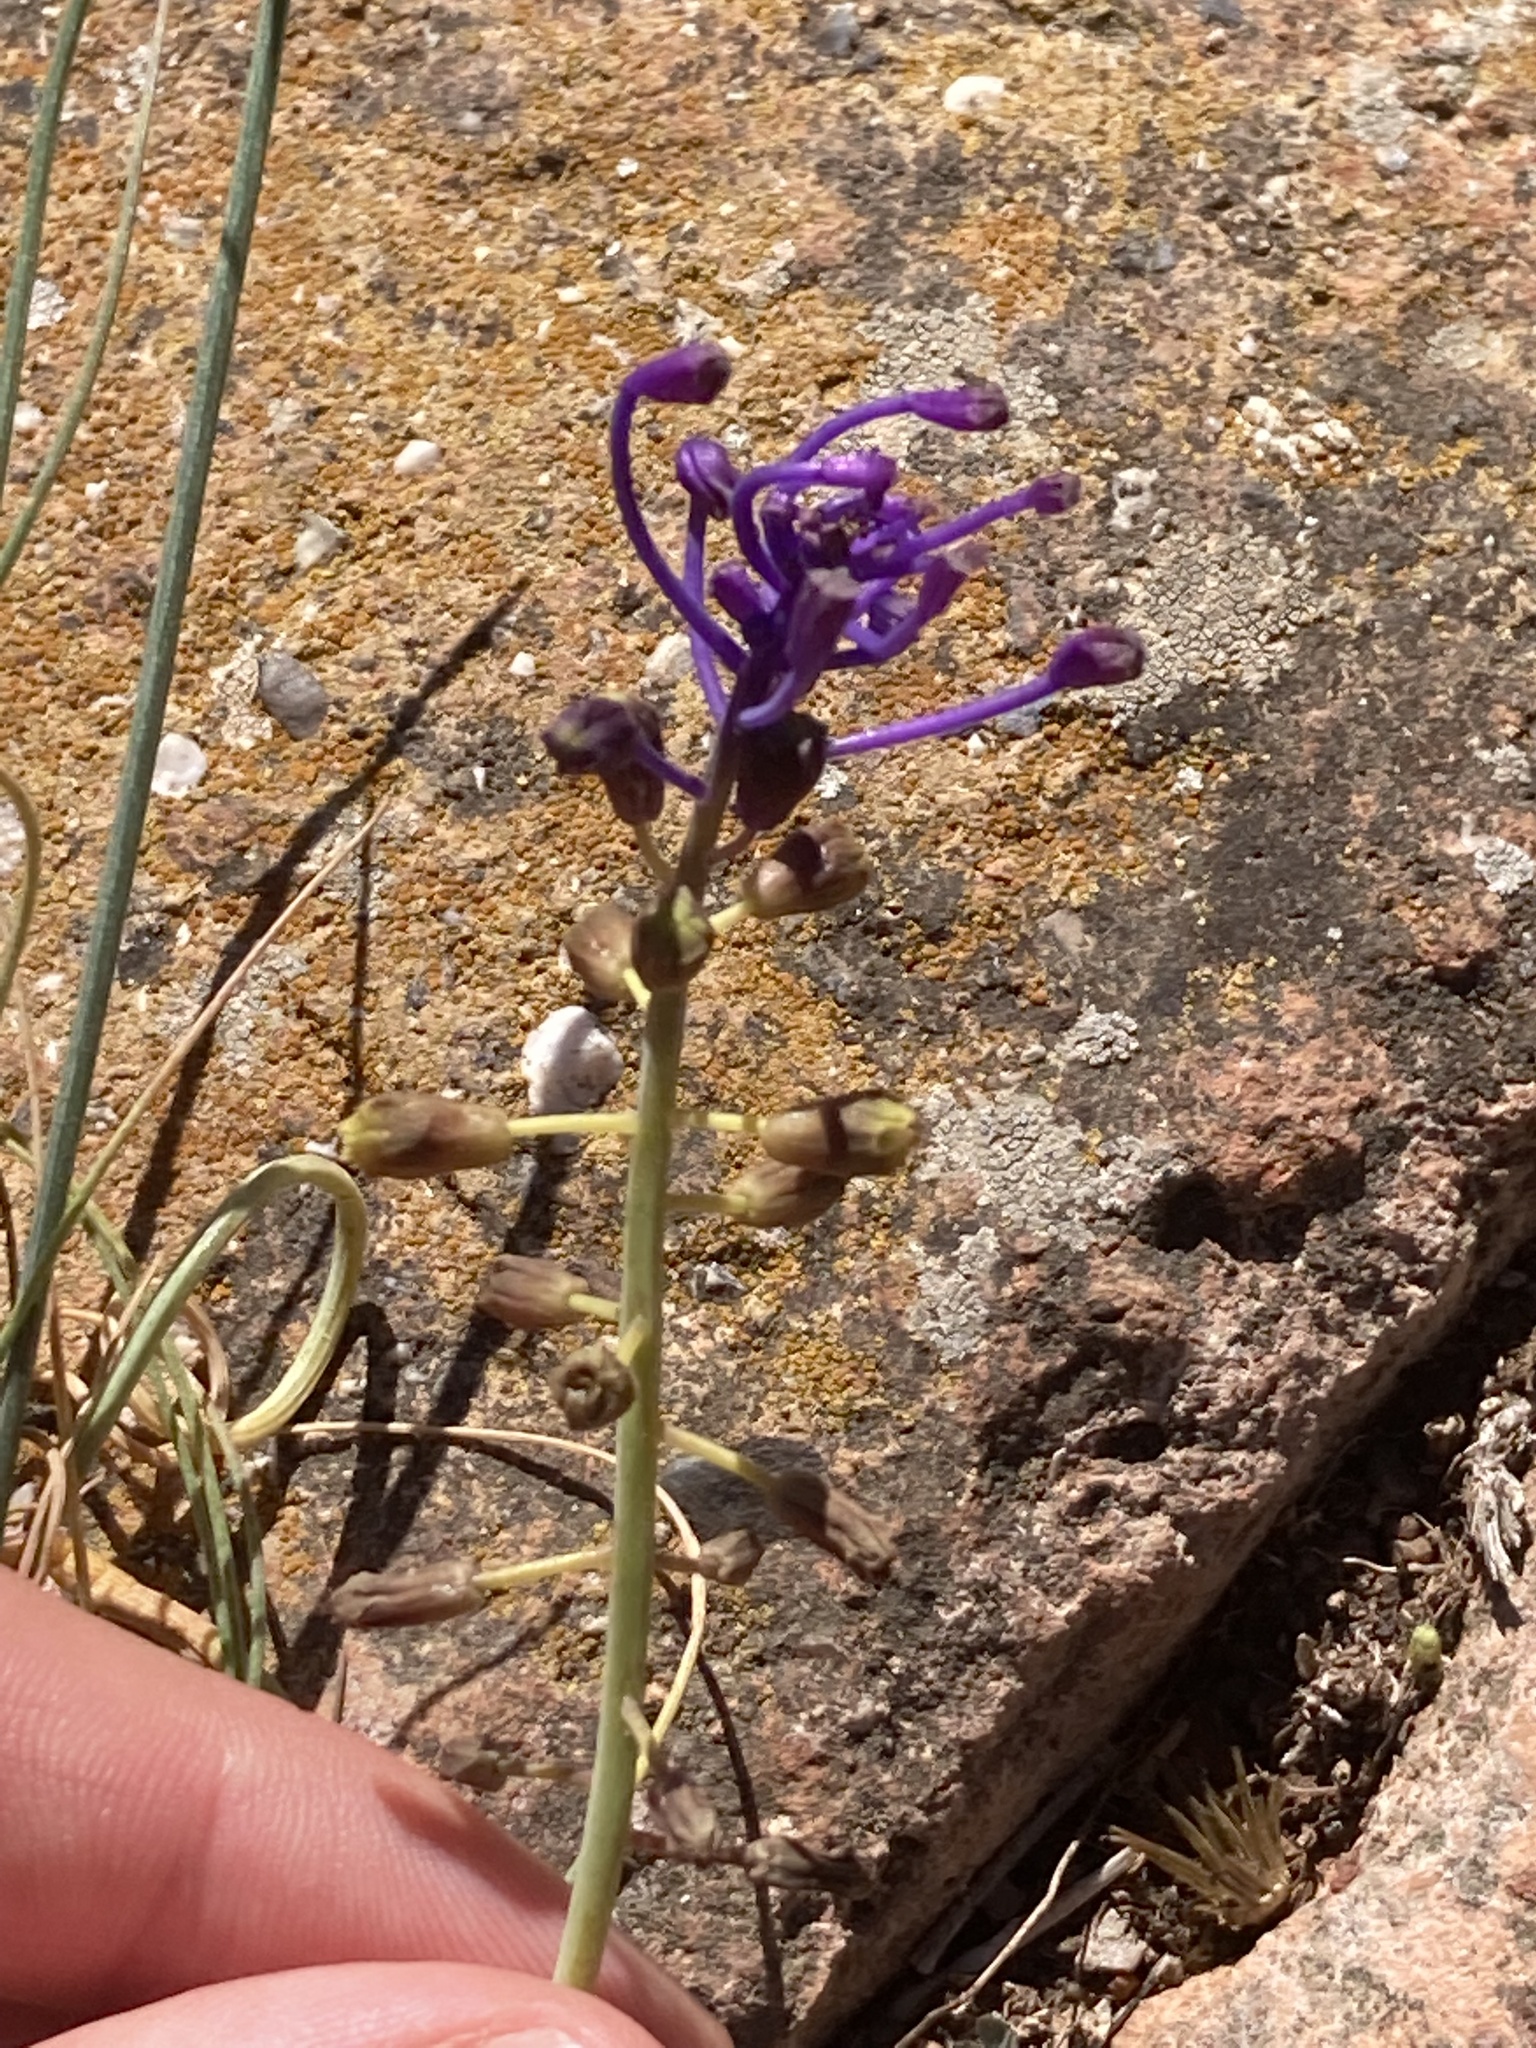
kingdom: Plantae
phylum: Tracheophyta
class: Liliopsida
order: Asparagales
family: Asparagaceae
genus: Muscari
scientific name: Muscari comosum
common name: Tassel hyacinth
